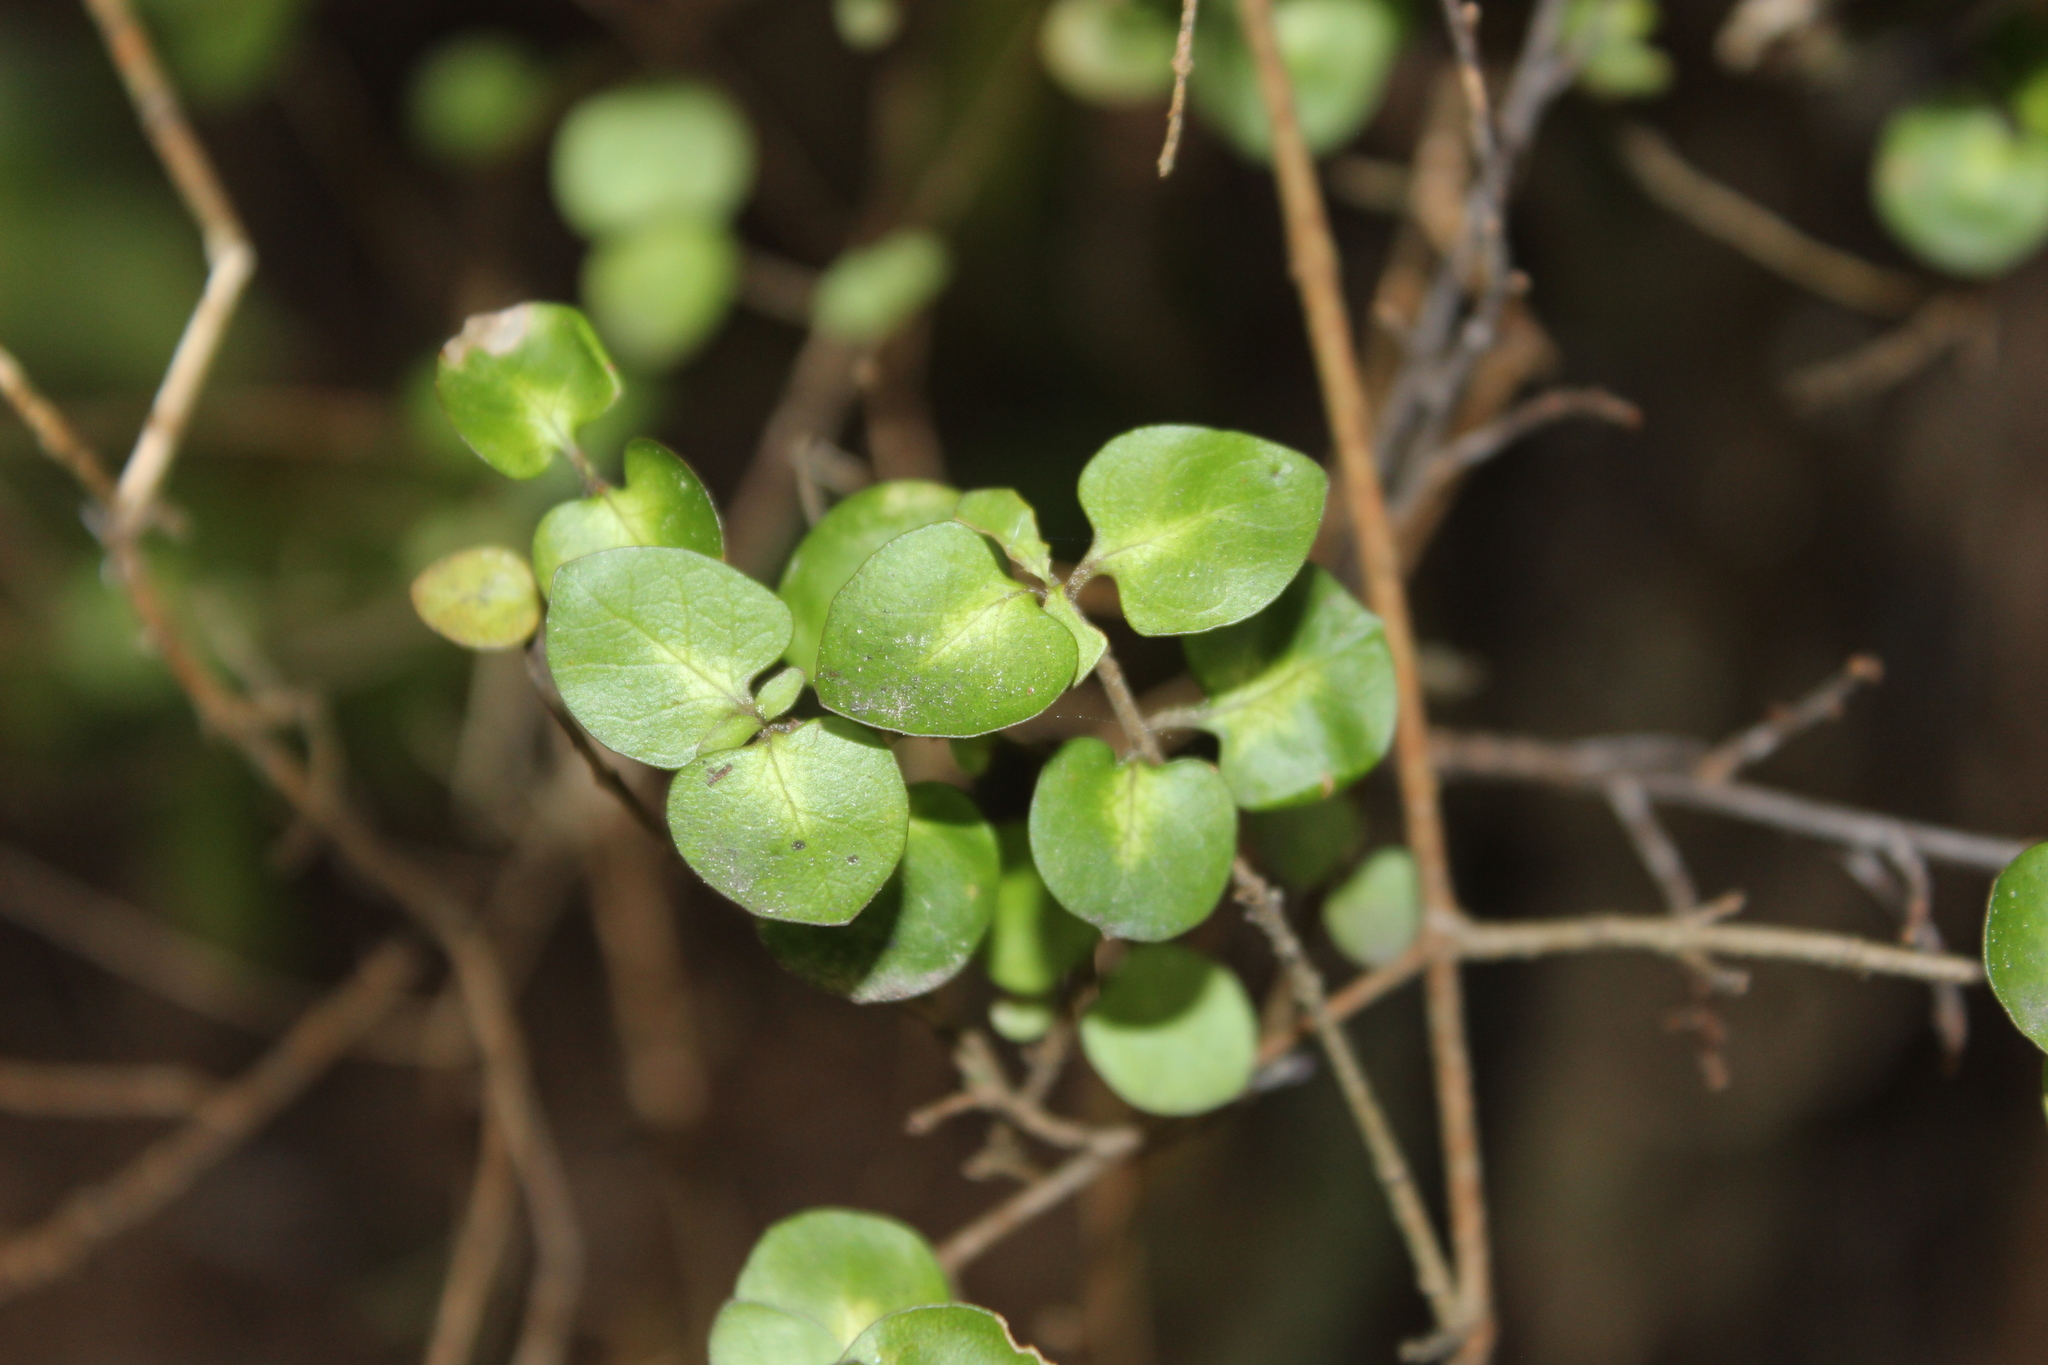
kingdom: Plantae
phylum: Tracheophyta
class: Magnoliopsida
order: Gentianales
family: Rubiaceae
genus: Coprosma
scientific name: Coprosma rhamnoides
